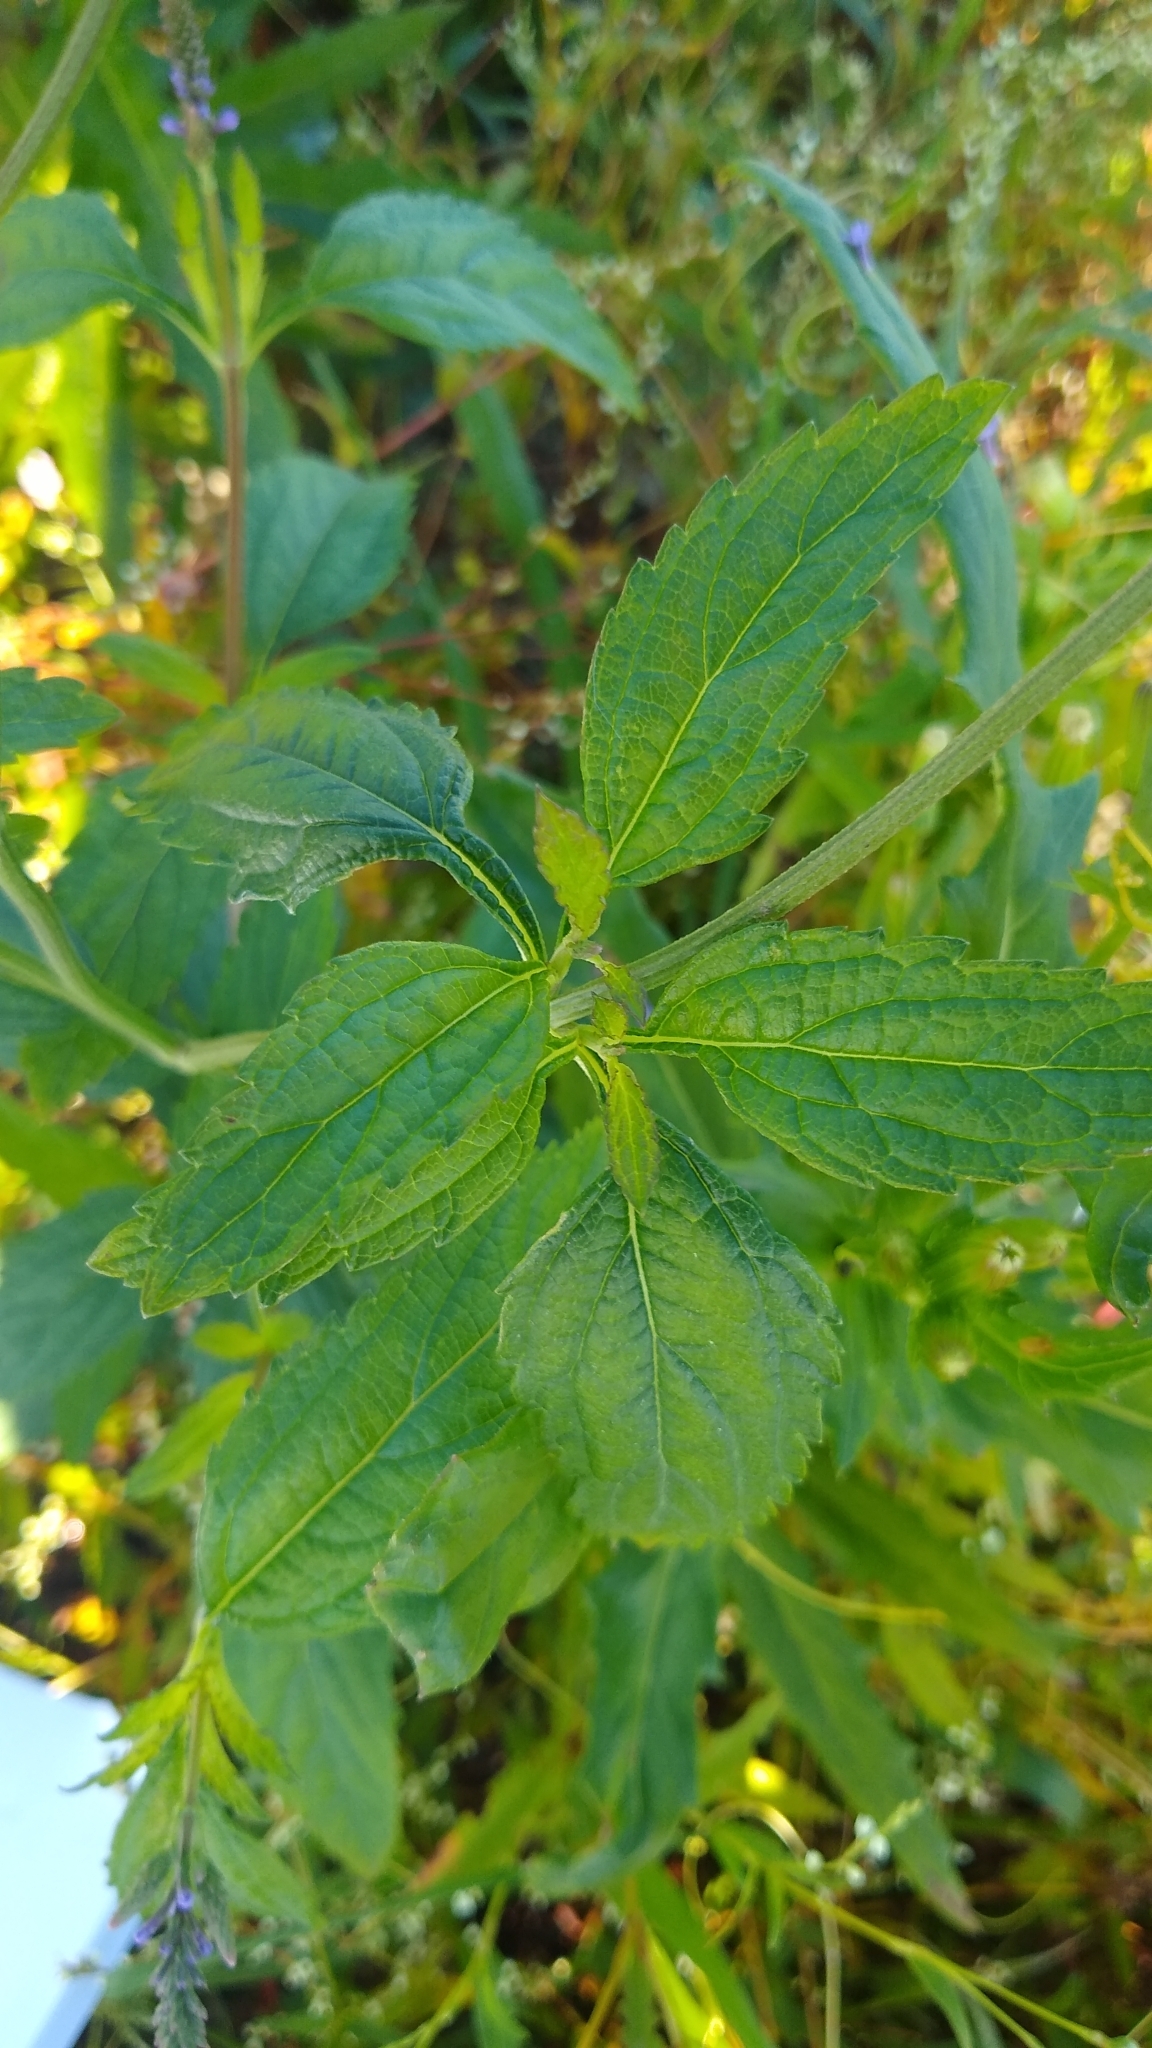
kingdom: Plantae
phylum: Tracheophyta
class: Magnoliopsida
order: Lamiales
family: Verbenaceae
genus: Verbena
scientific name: Verbena hastata
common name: American blue vervain
